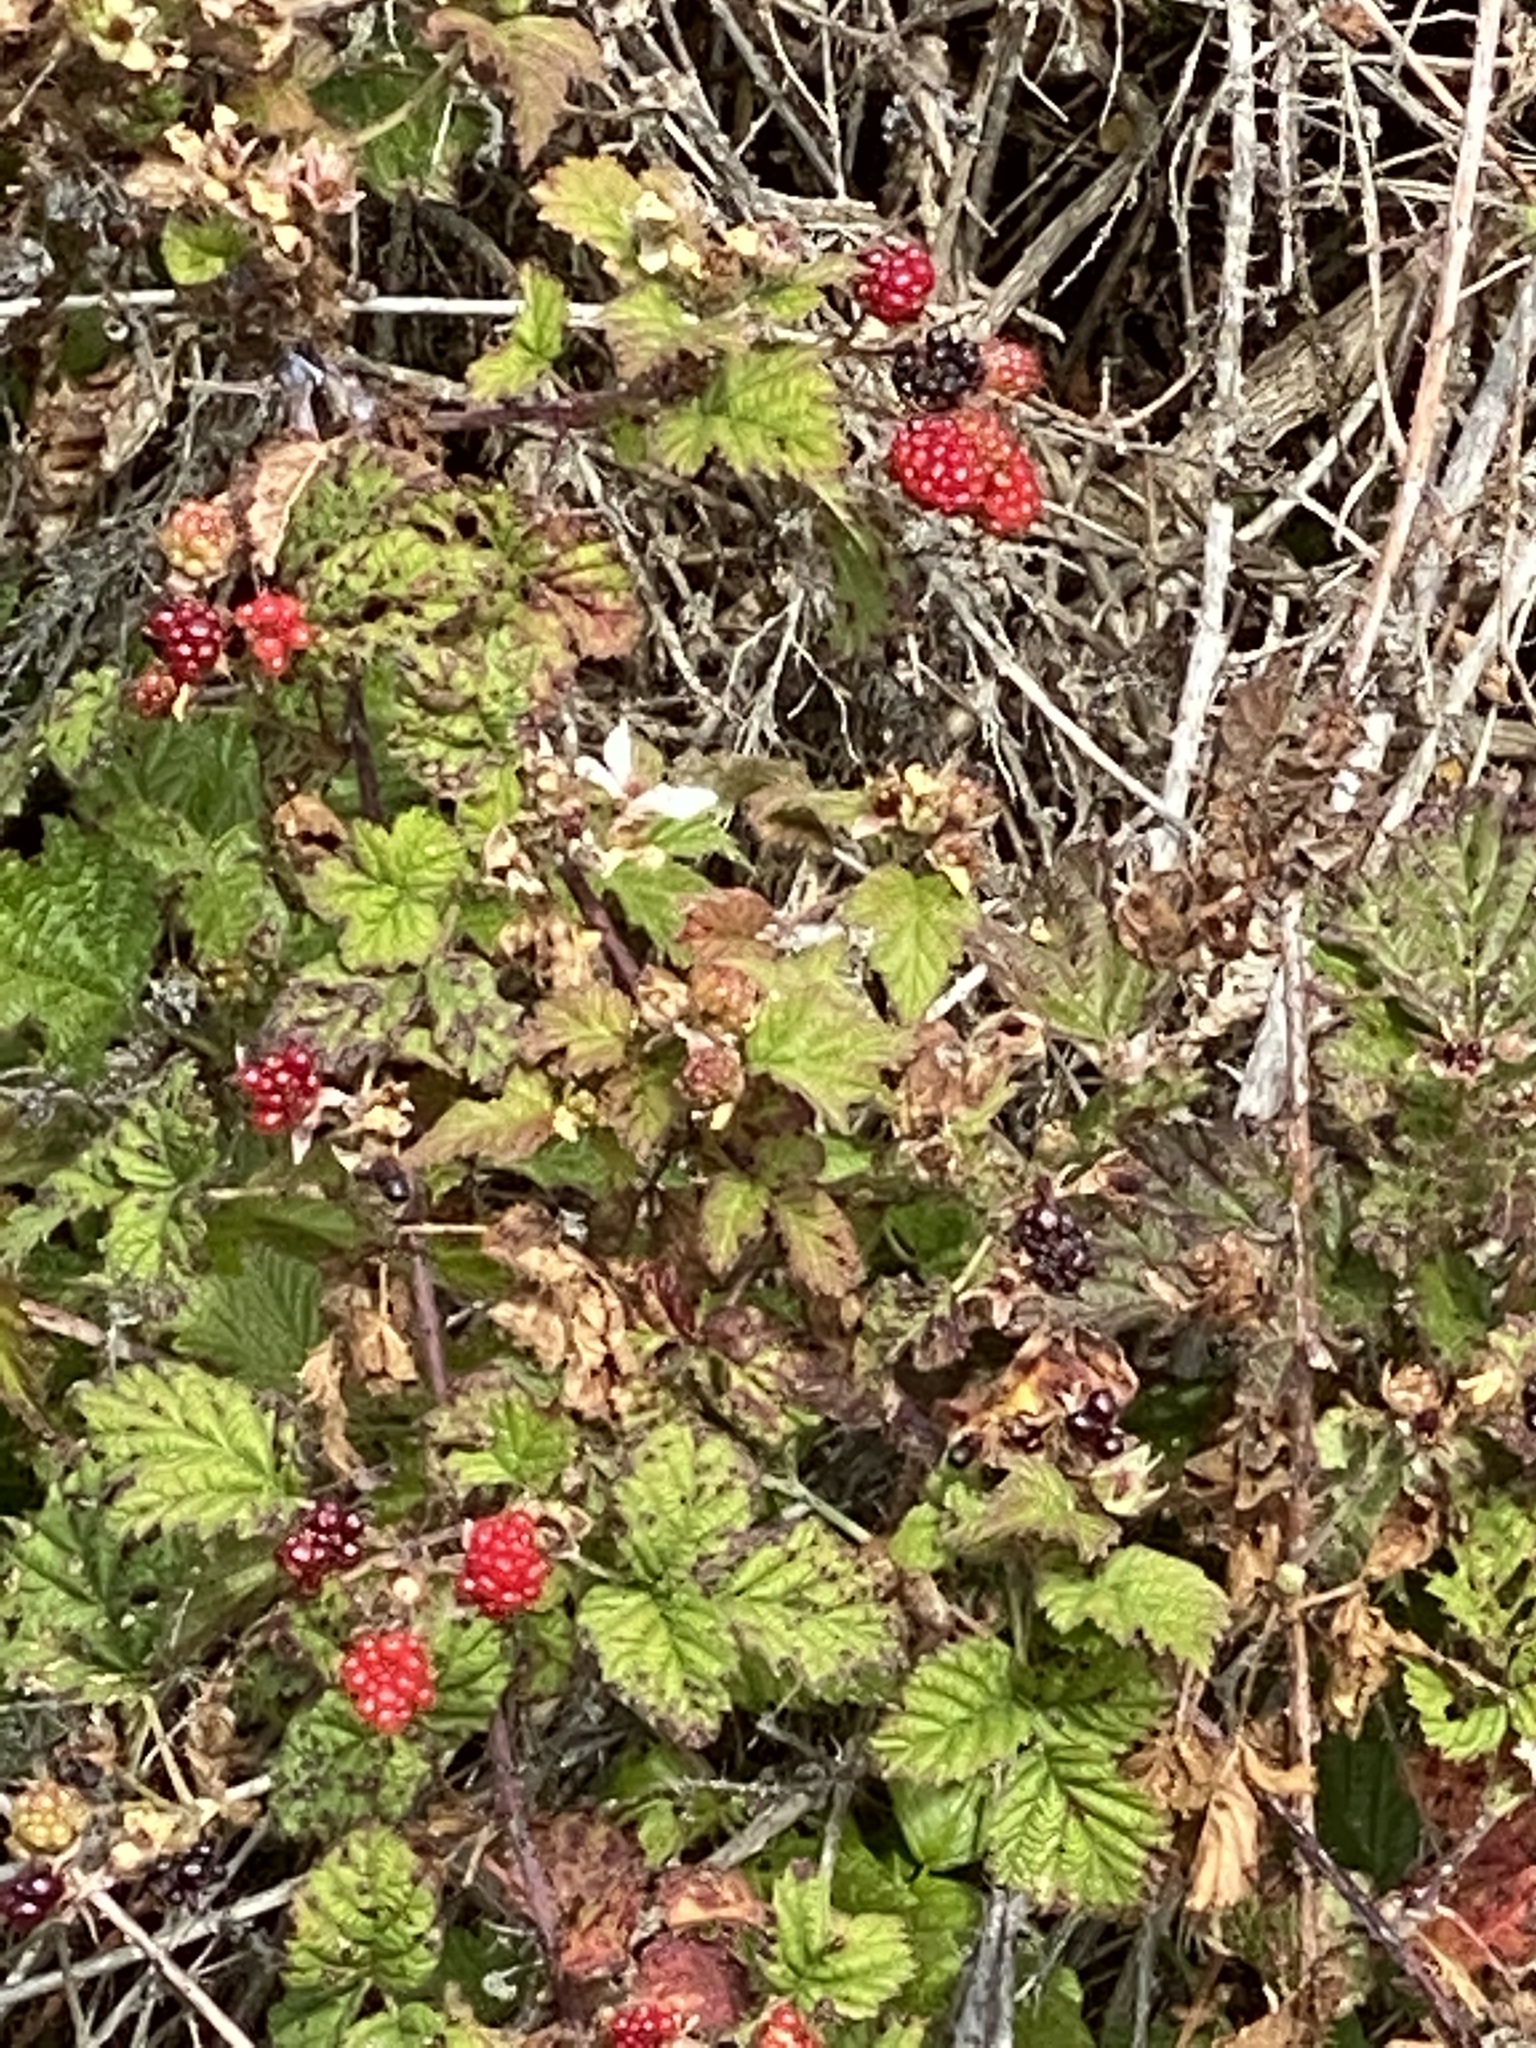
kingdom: Plantae
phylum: Tracheophyta
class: Magnoliopsida
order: Rosales
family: Rosaceae
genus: Rubus
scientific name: Rubus ursinus
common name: Pacific blackberry
